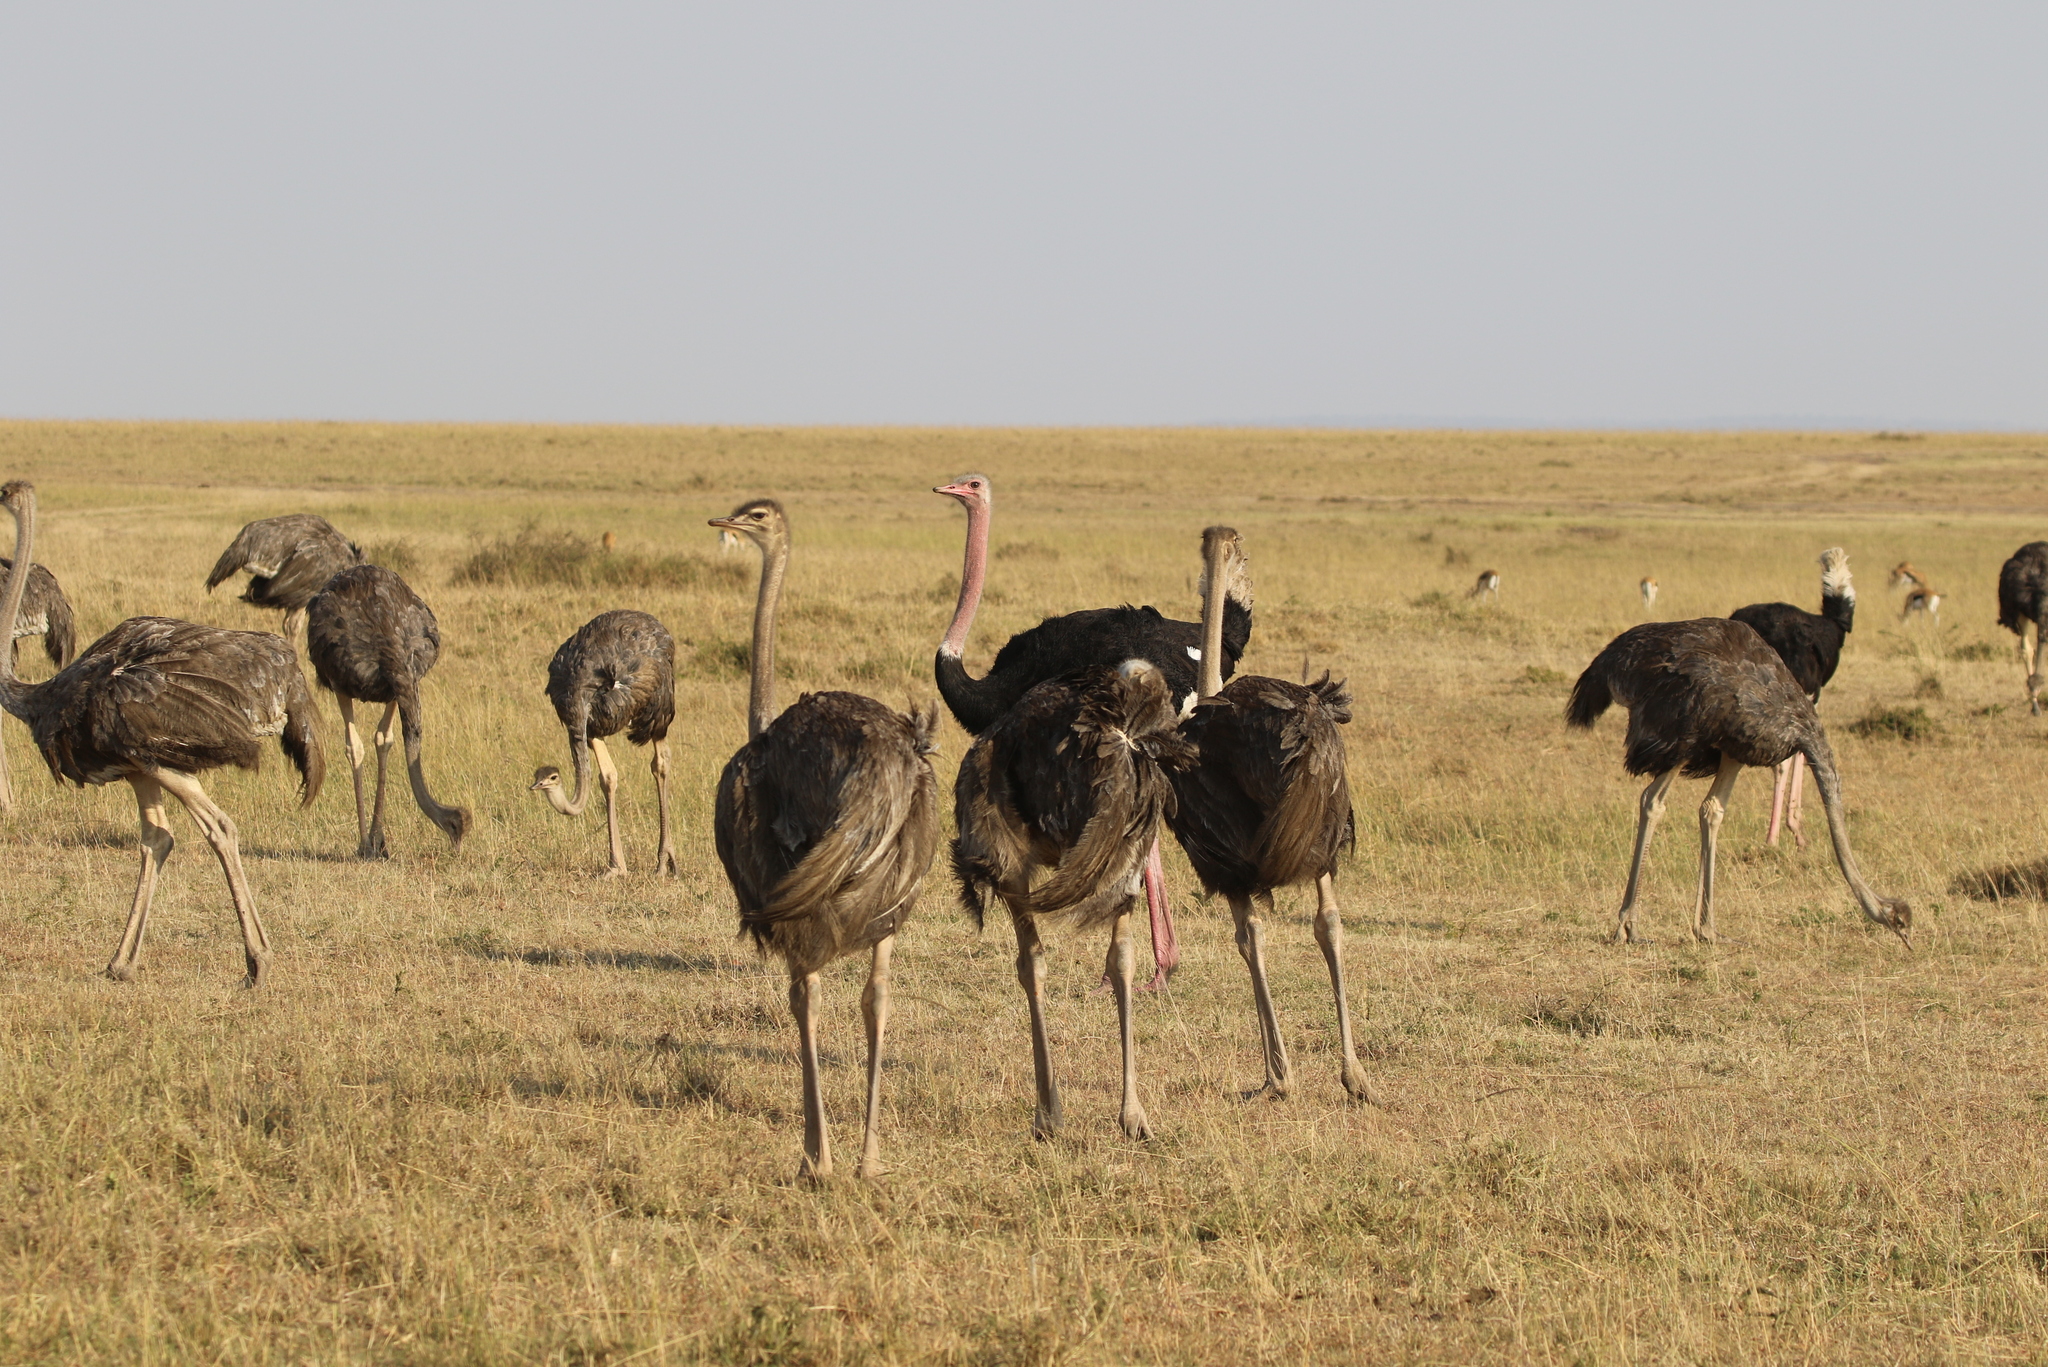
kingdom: Animalia
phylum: Chordata
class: Aves
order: Struthioniformes
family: Struthionidae
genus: Struthio
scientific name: Struthio camelus
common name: Common ostrich
